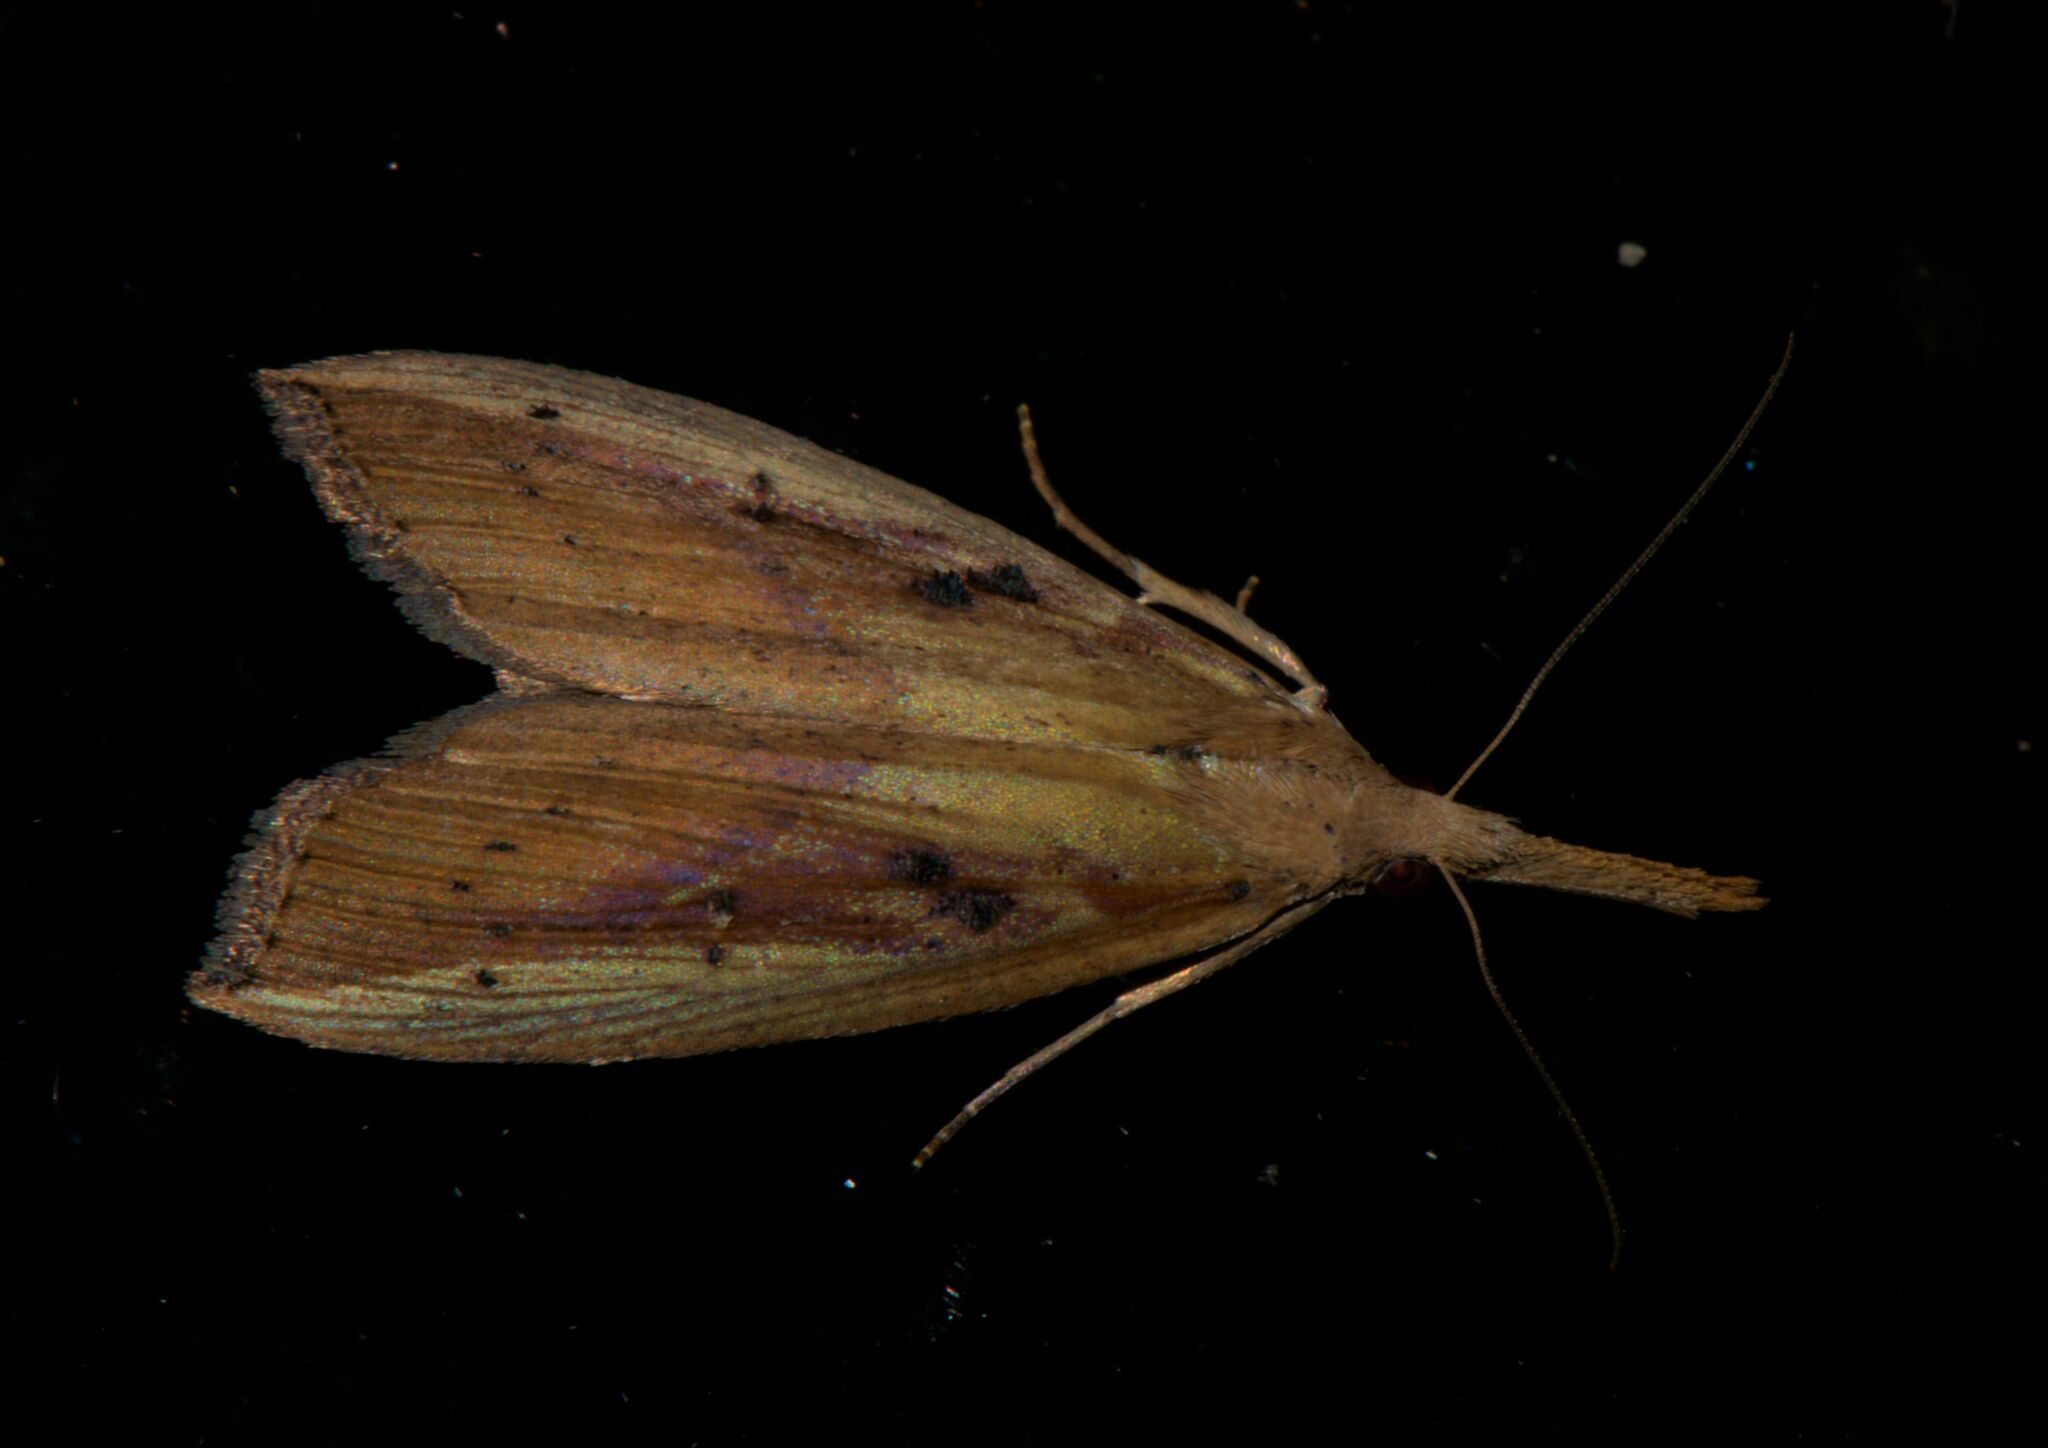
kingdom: Animalia
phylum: Arthropoda
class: Insecta
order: Lepidoptera
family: Erebidae
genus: Hypena
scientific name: Hypena longipennis
